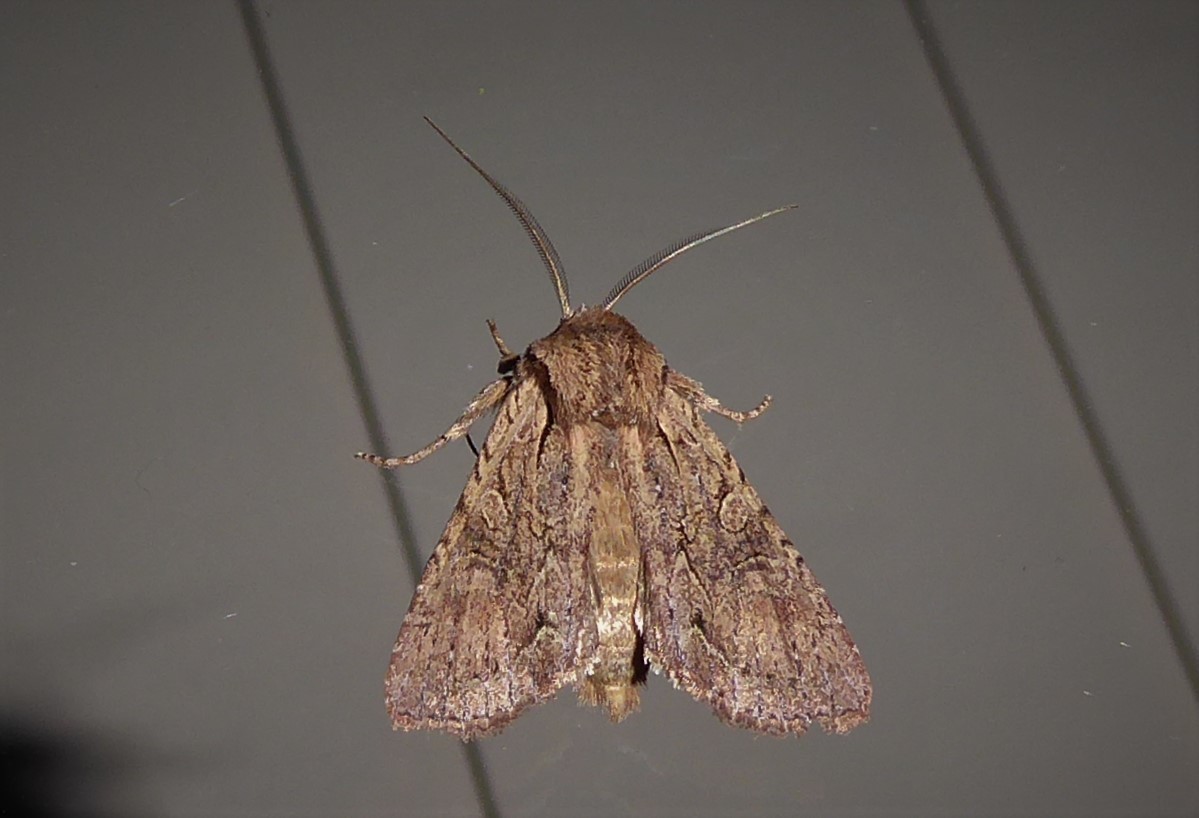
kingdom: Animalia
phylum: Arthropoda
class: Insecta
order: Lepidoptera
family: Noctuidae
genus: Ichneutica
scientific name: Ichneutica
